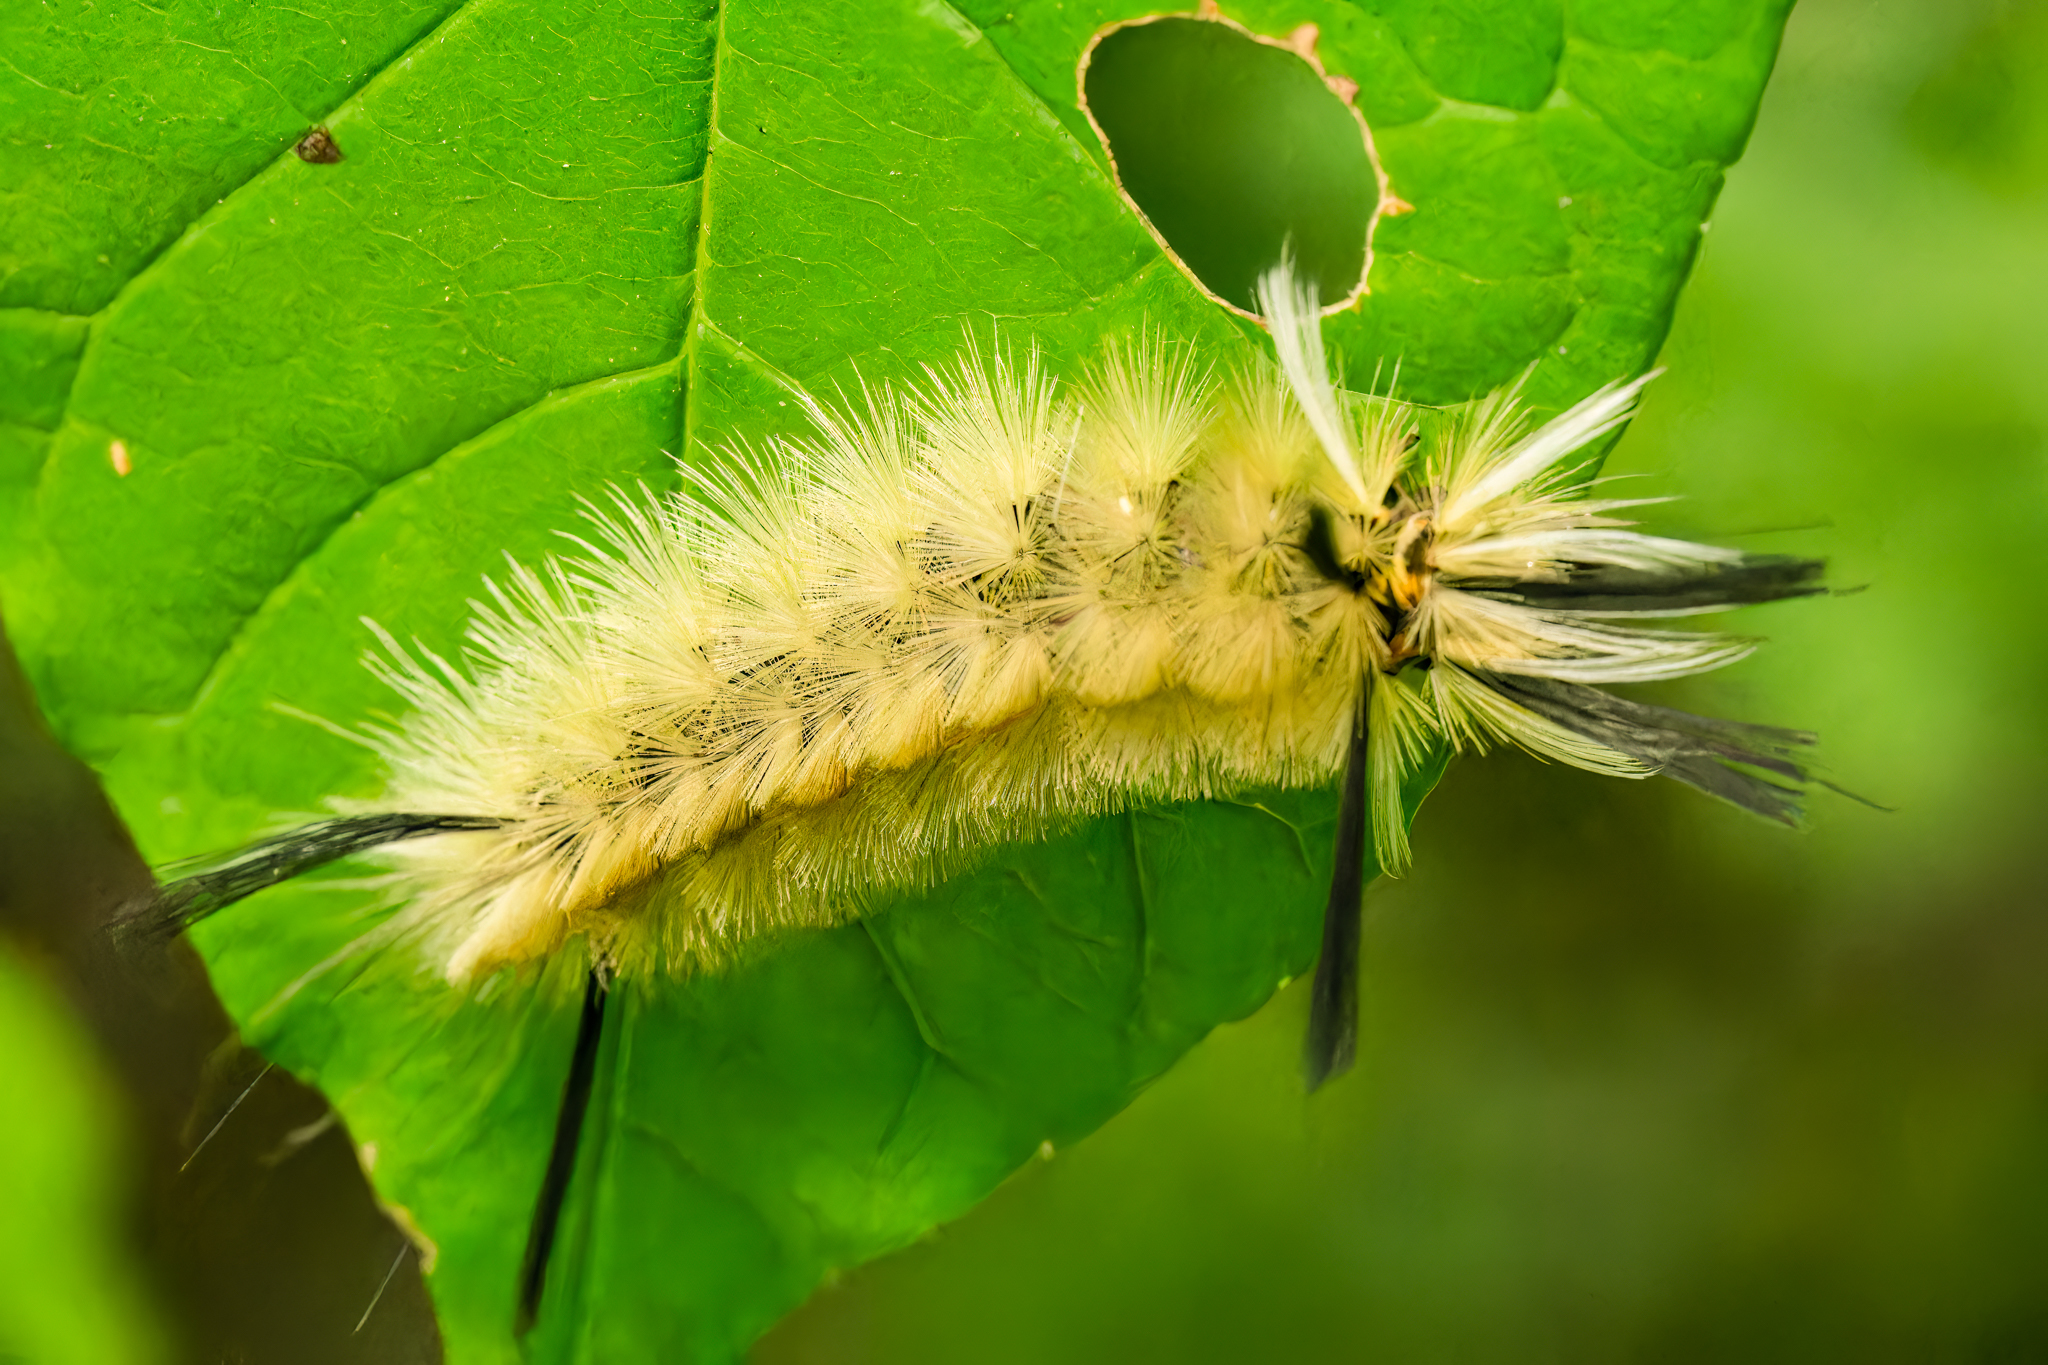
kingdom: Animalia
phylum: Arthropoda
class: Insecta
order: Lepidoptera
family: Erebidae
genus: Halysidota
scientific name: Halysidota tessellaris
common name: Banded tussock moth
